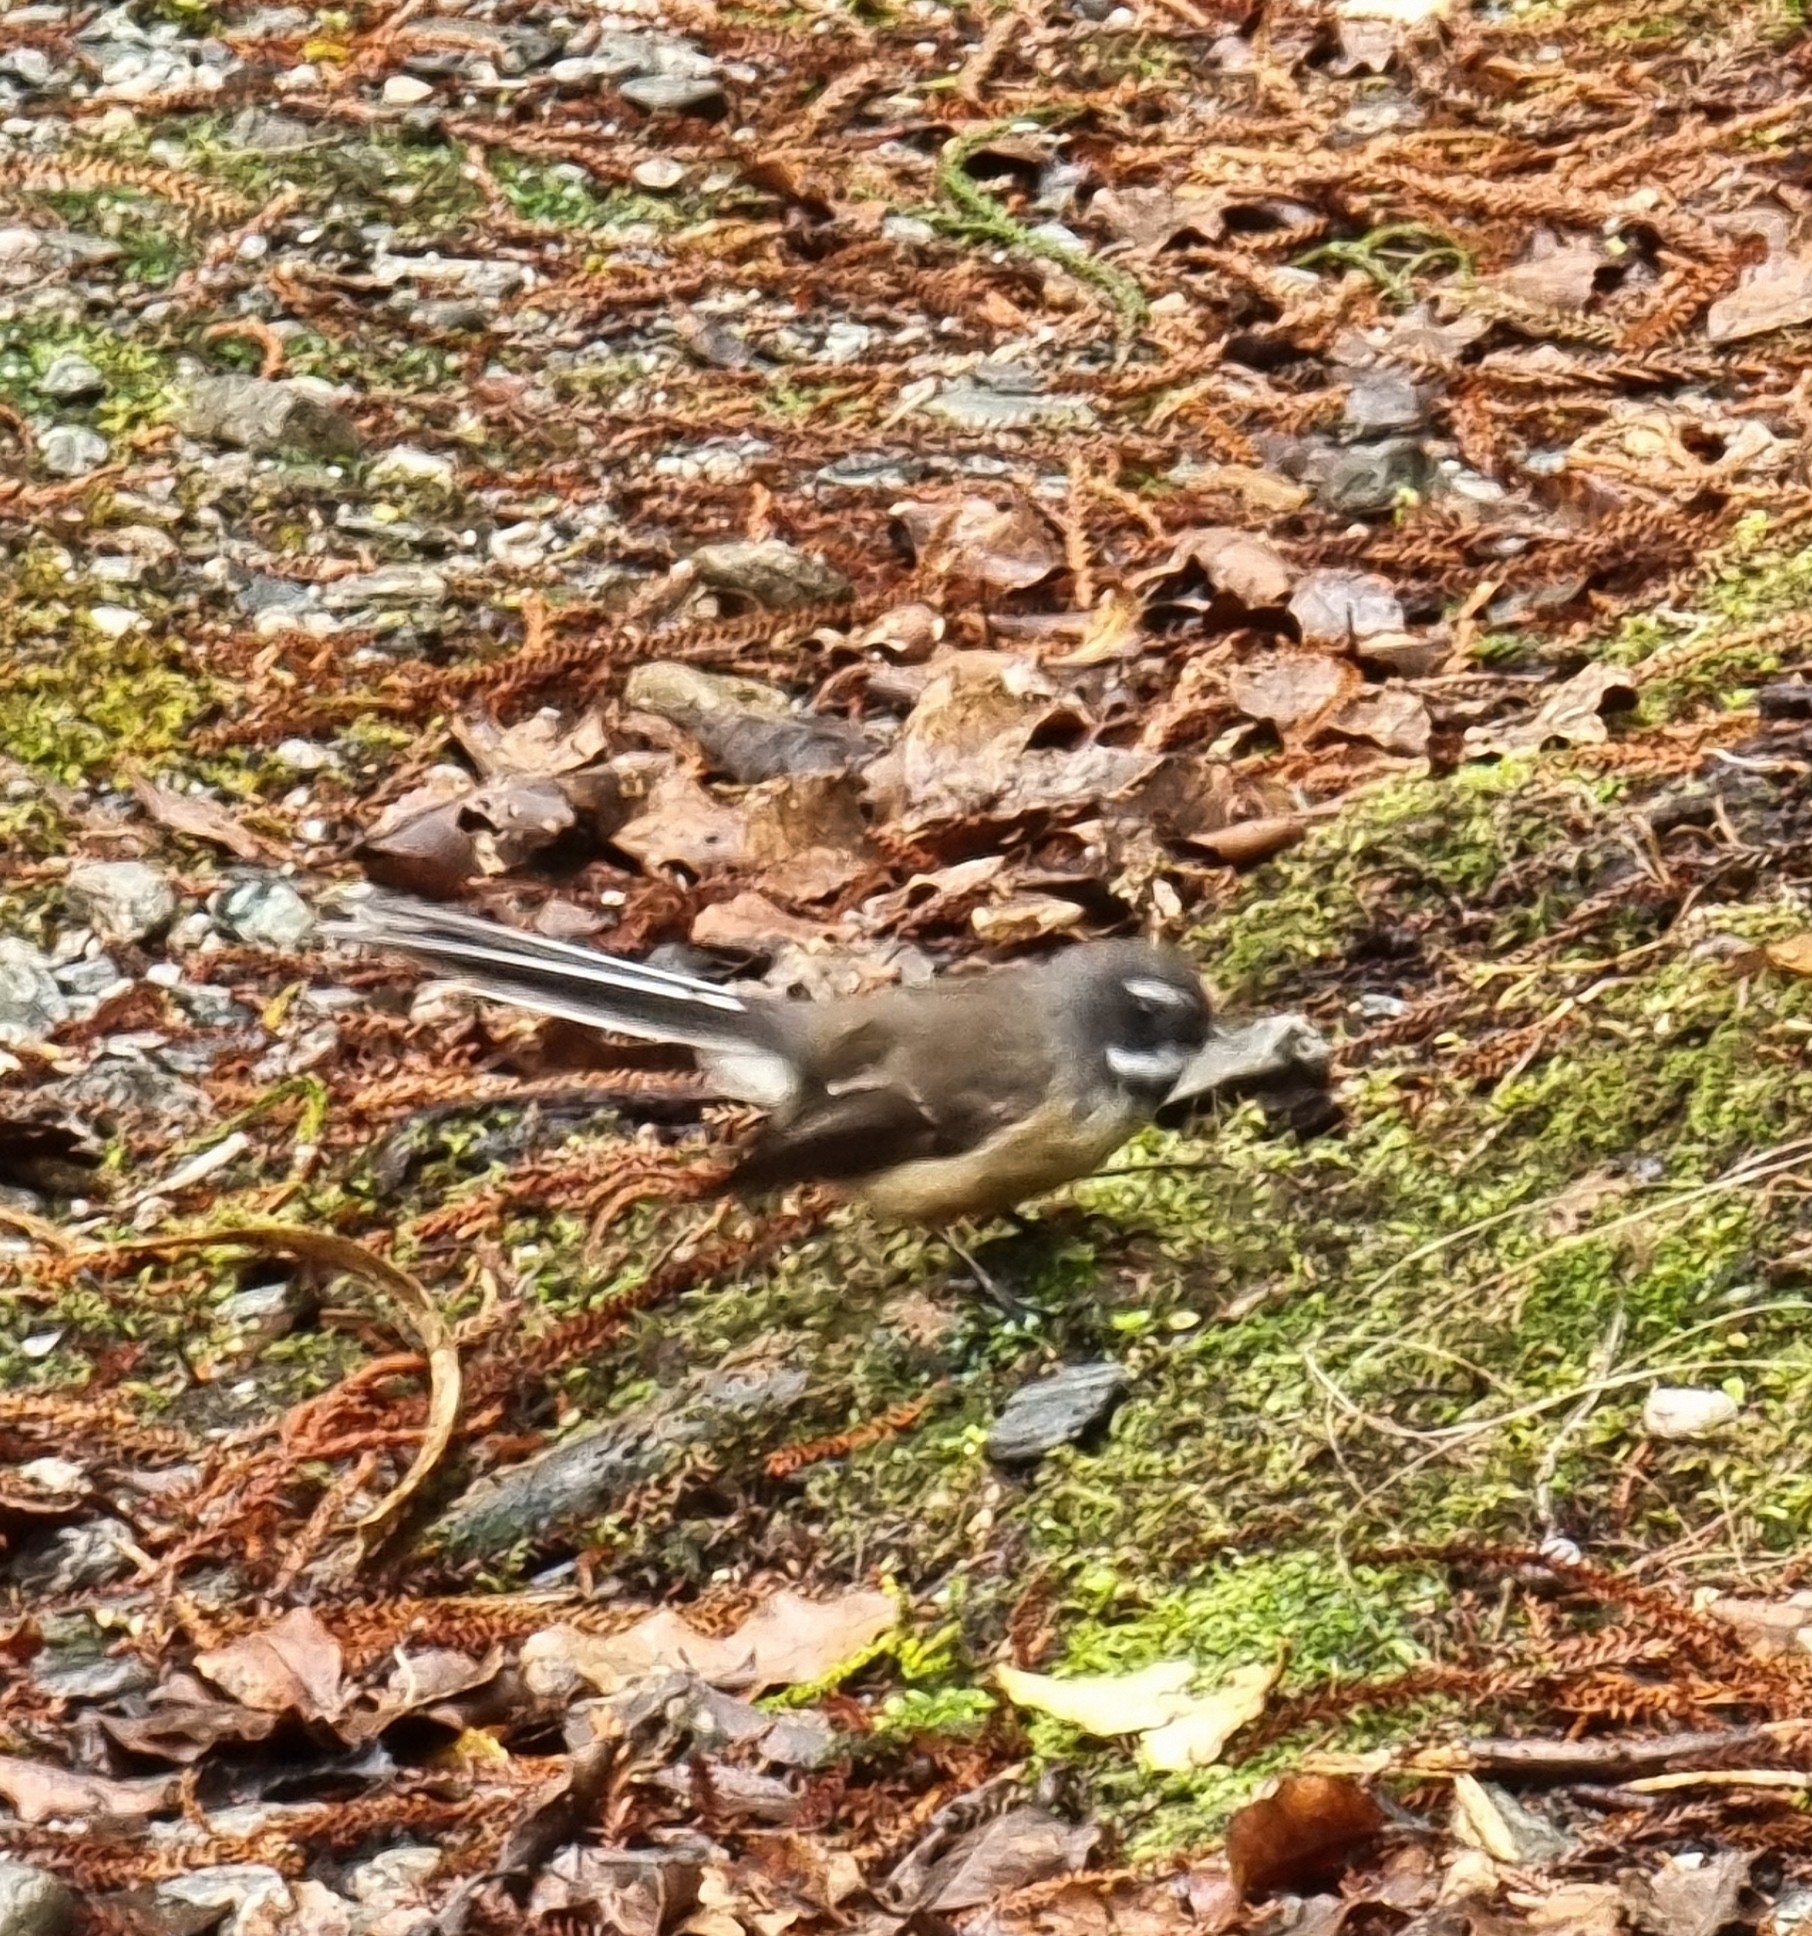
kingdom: Animalia
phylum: Chordata
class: Aves
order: Passeriformes
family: Rhipiduridae
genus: Rhipidura
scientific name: Rhipidura fuliginosa
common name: New zealand fantail
